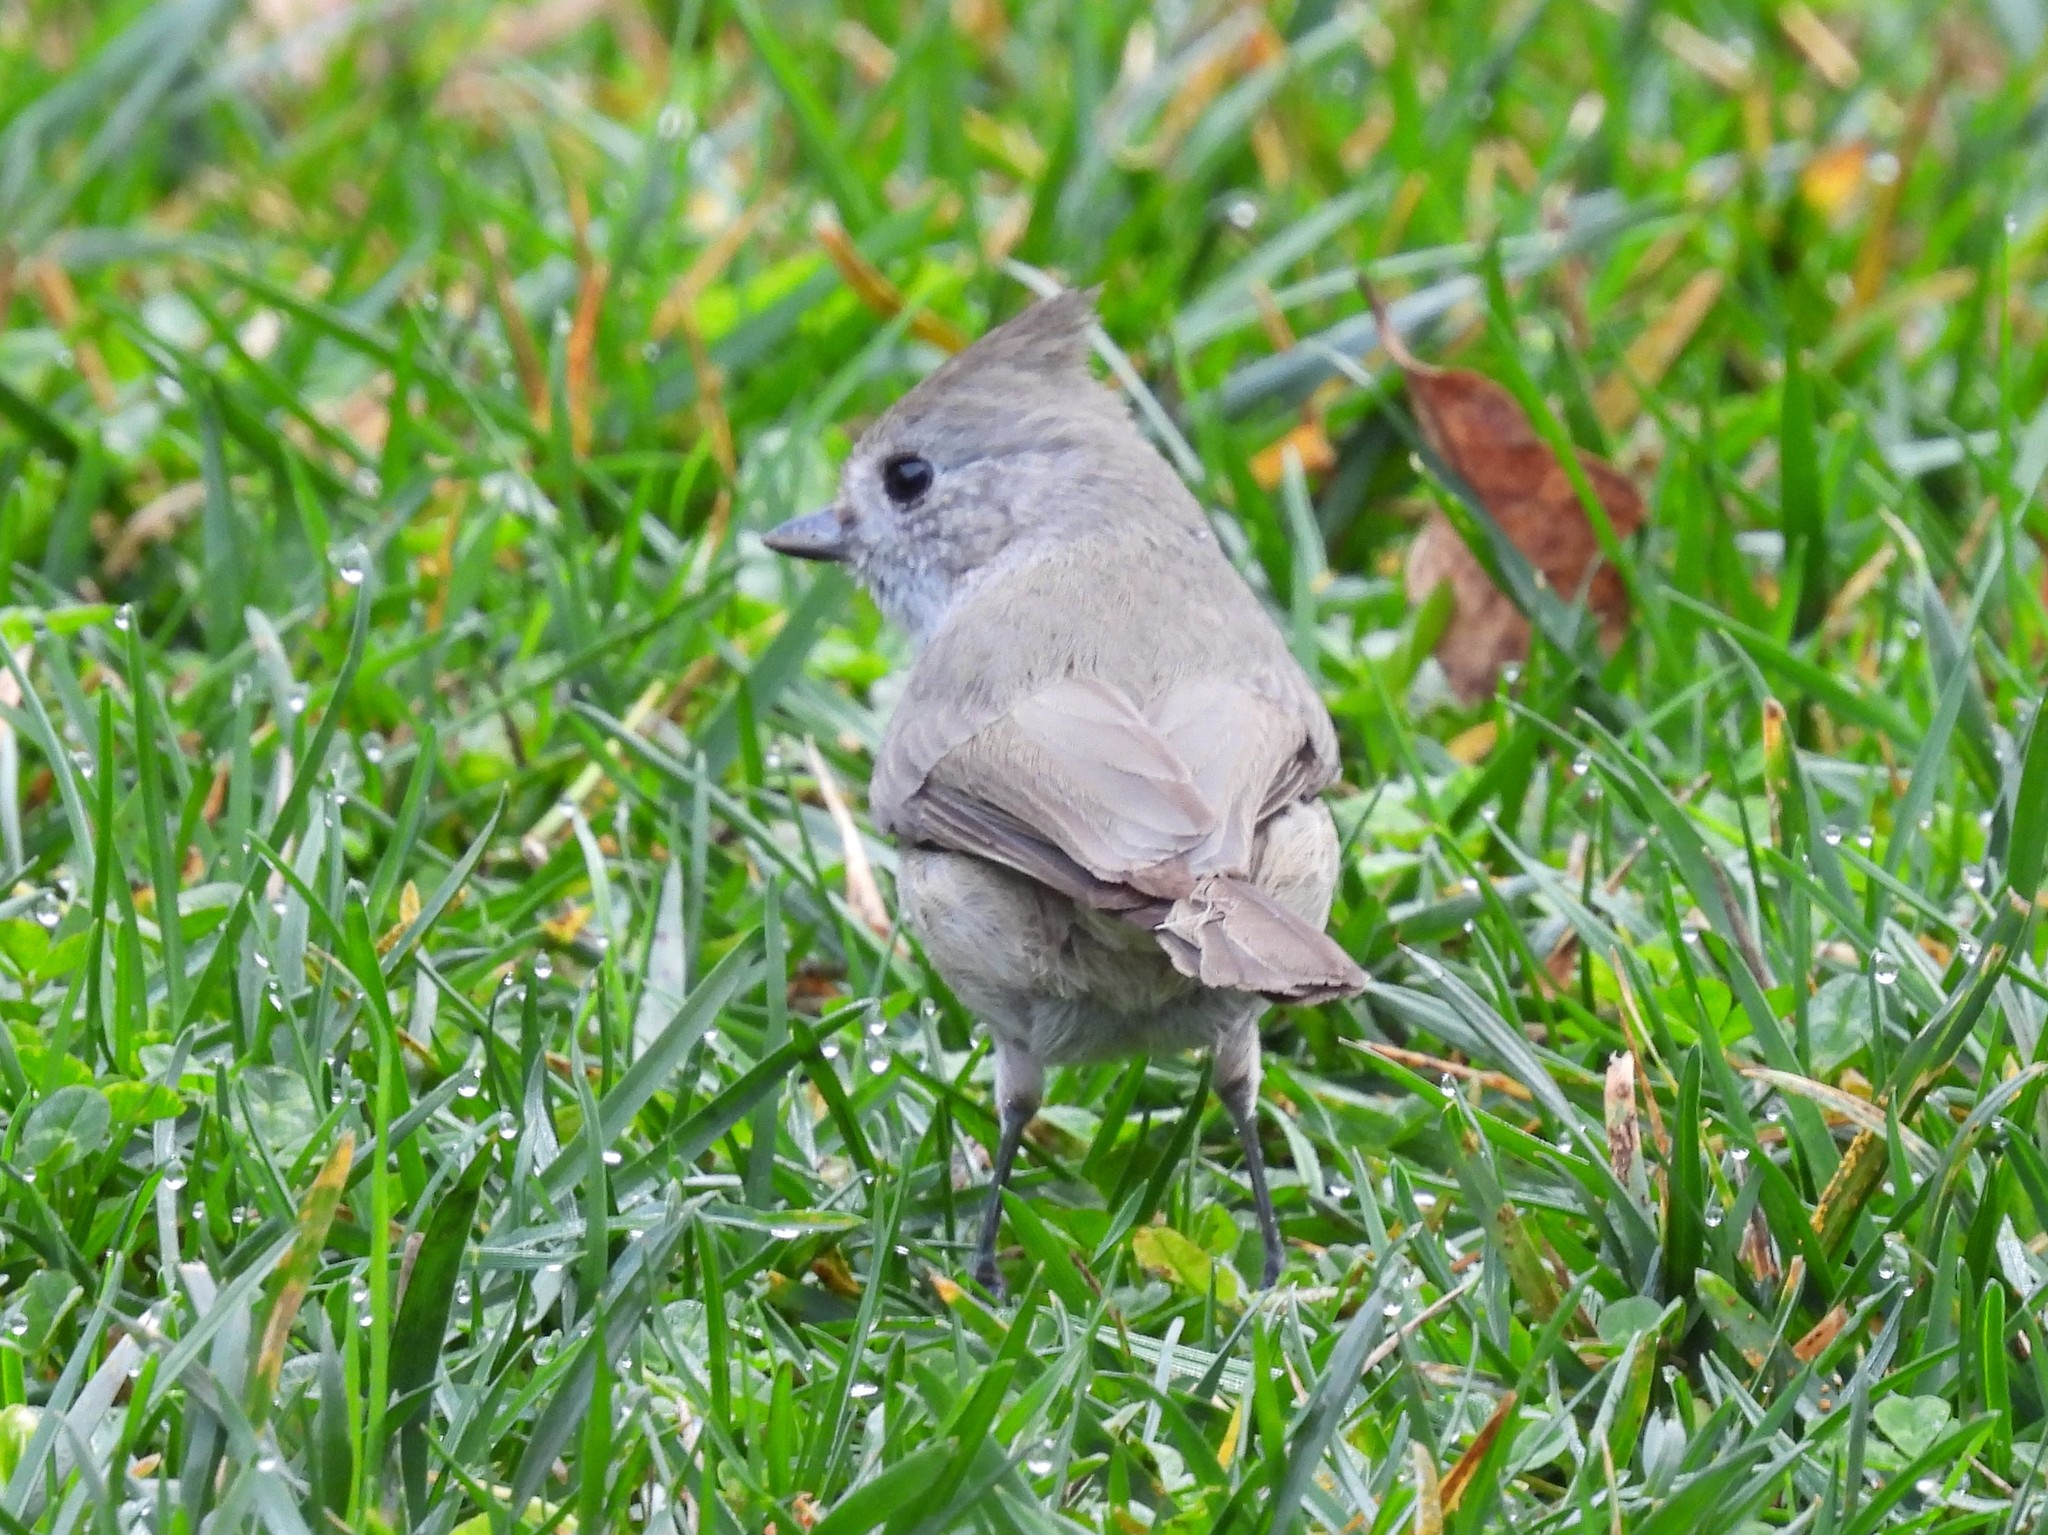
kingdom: Animalia
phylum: Chordata
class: Aves
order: Passeriformes
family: Paridae
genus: Baeolophus
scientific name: Baeolophus inornatus
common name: Oak titmouse
